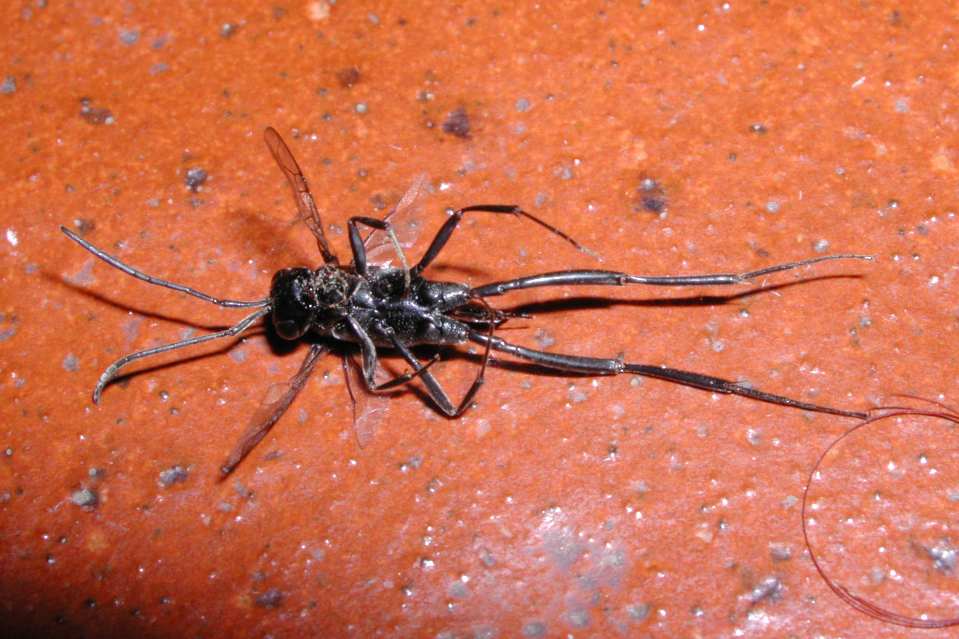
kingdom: Animalia
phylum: Arthropoda
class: Insecta
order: Hymenoptera
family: Evaniidae
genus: Evania
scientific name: Evania appendigaster
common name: Ensign wasp
